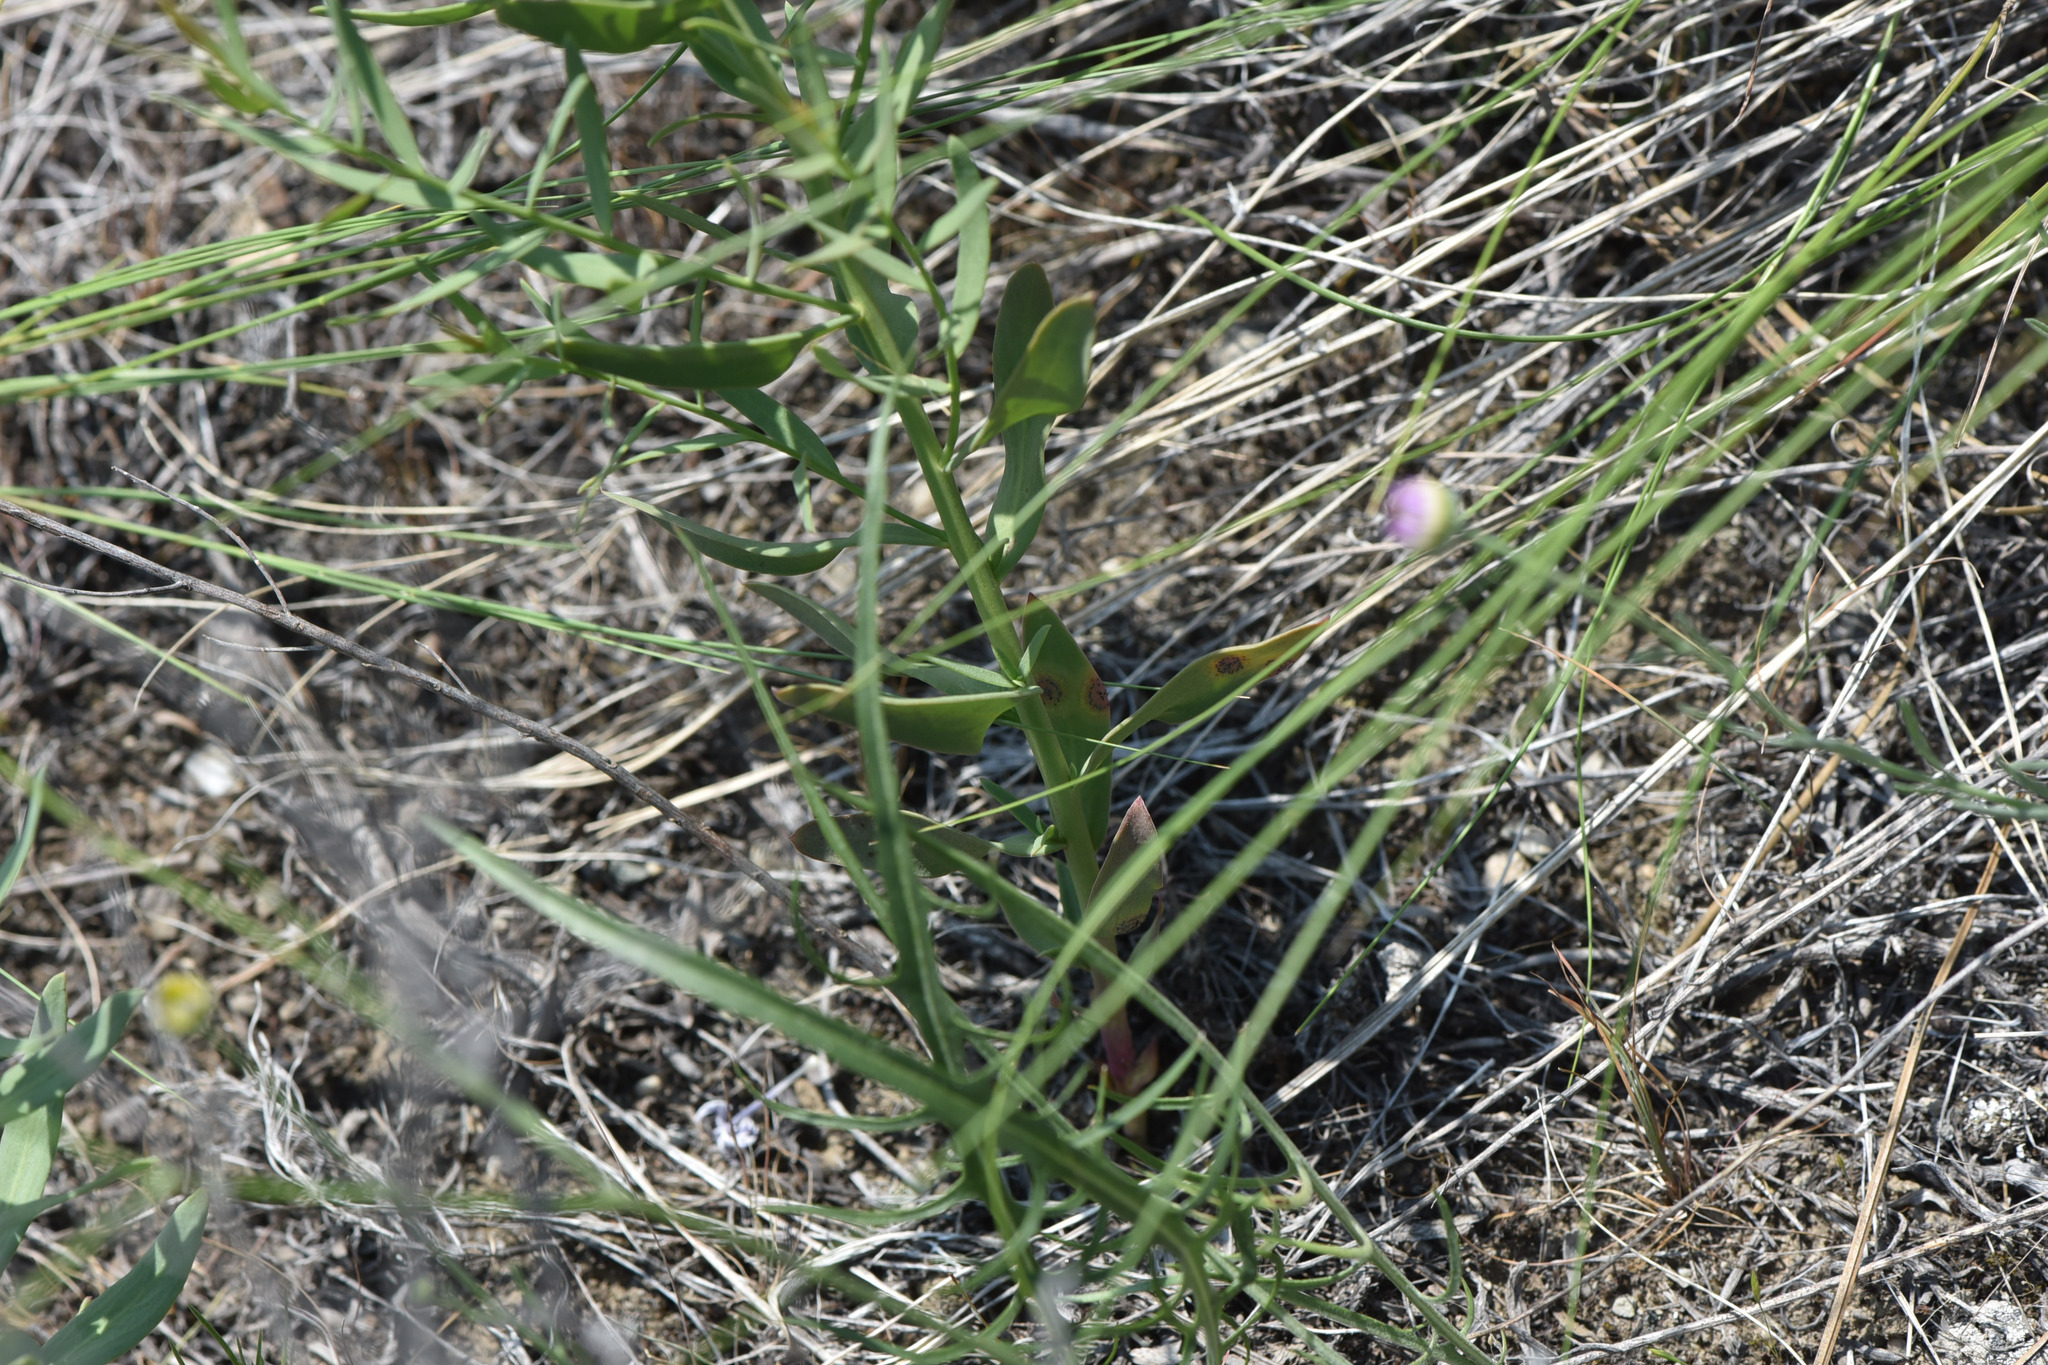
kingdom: Plantae
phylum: Tracheophyta
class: Magnoliopsida
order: Santalales
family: Comandraceae
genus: Comandra
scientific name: Comandra umbellata
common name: Bastard toadflax
